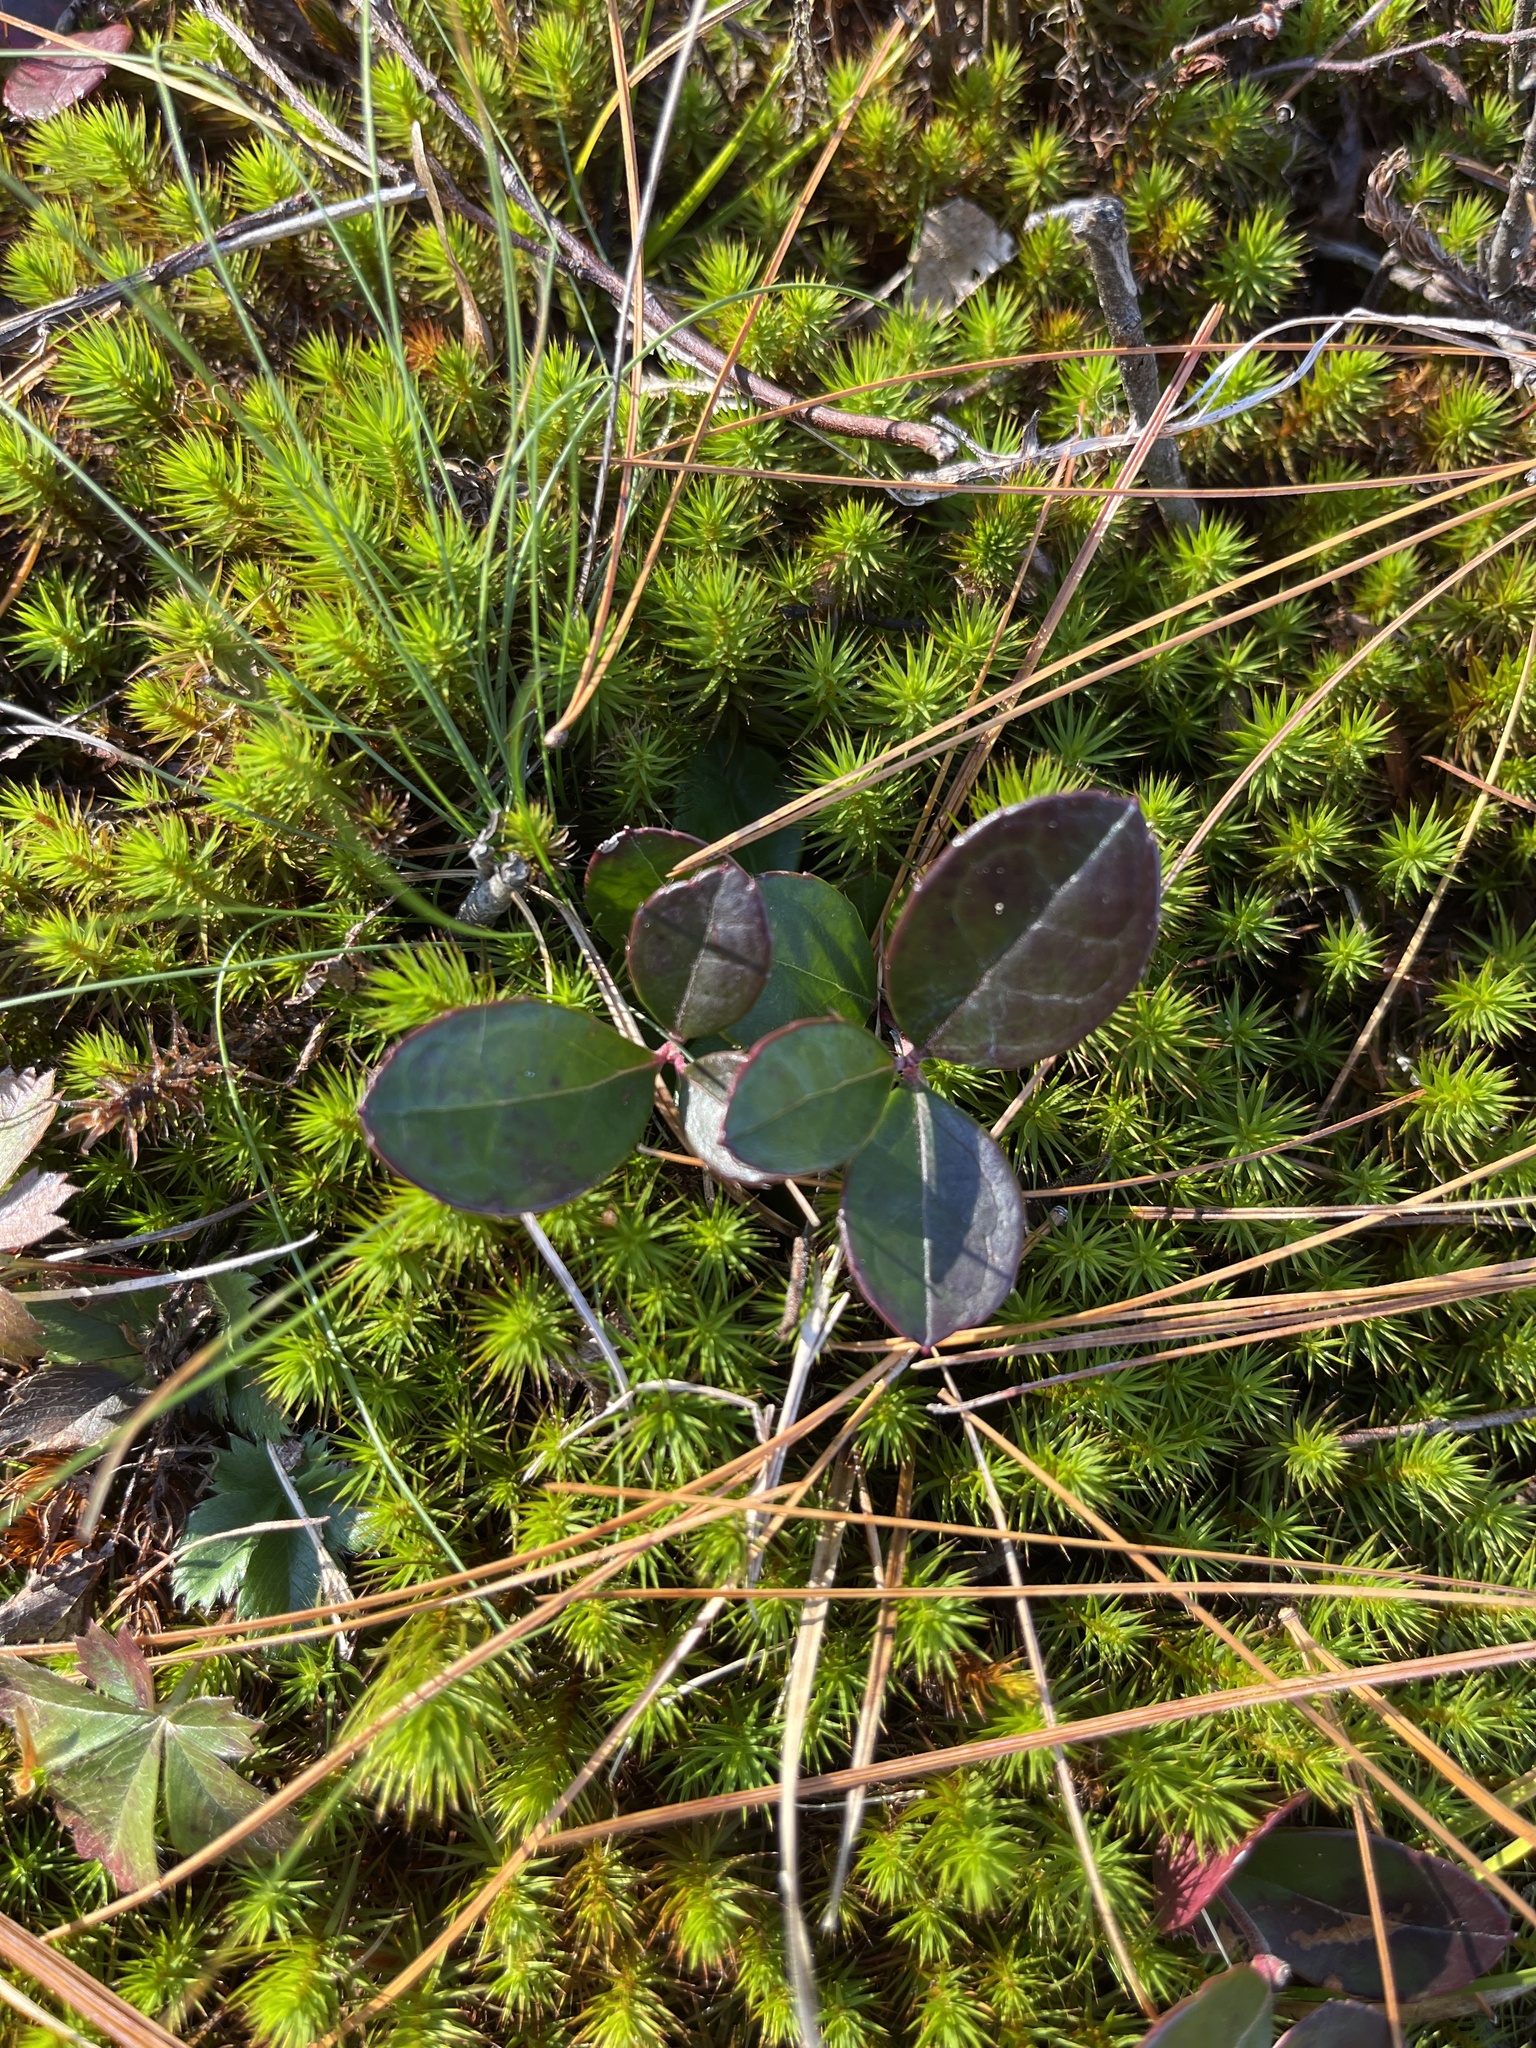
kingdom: Plantae
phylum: Tracheophyta
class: Magnoliopsida
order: Ericales
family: Ericaceae
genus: Gaultheria
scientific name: Gaultheria procumbens
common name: Checkerberry
